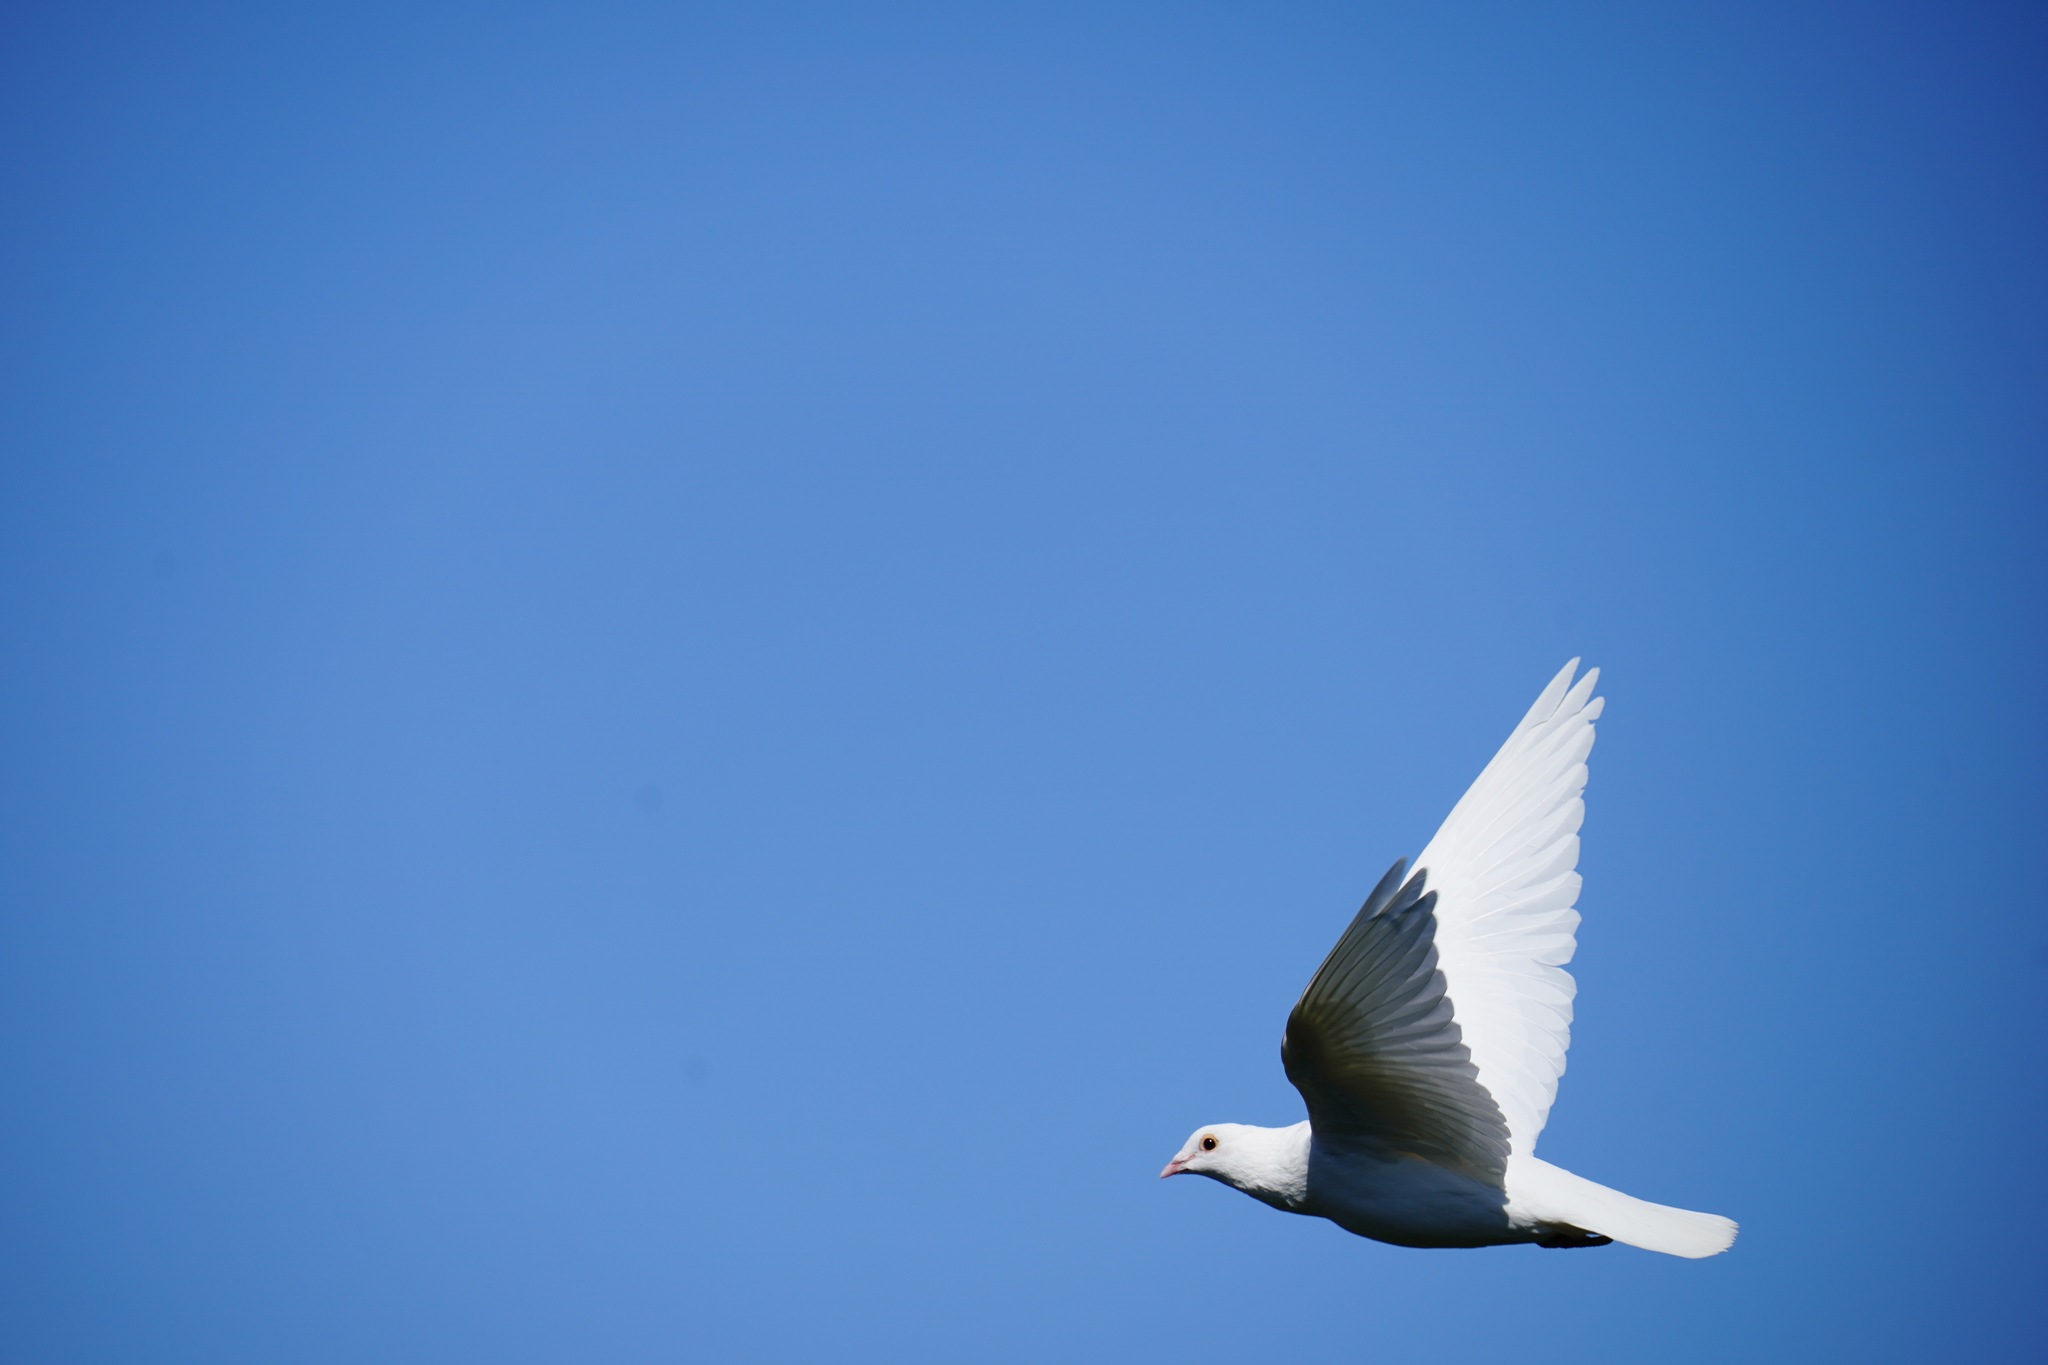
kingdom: Animalia
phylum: Chordata
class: Aves
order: Columbiformes
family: Columbidae
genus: Columba
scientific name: Columba livia
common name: Rock pigeon
